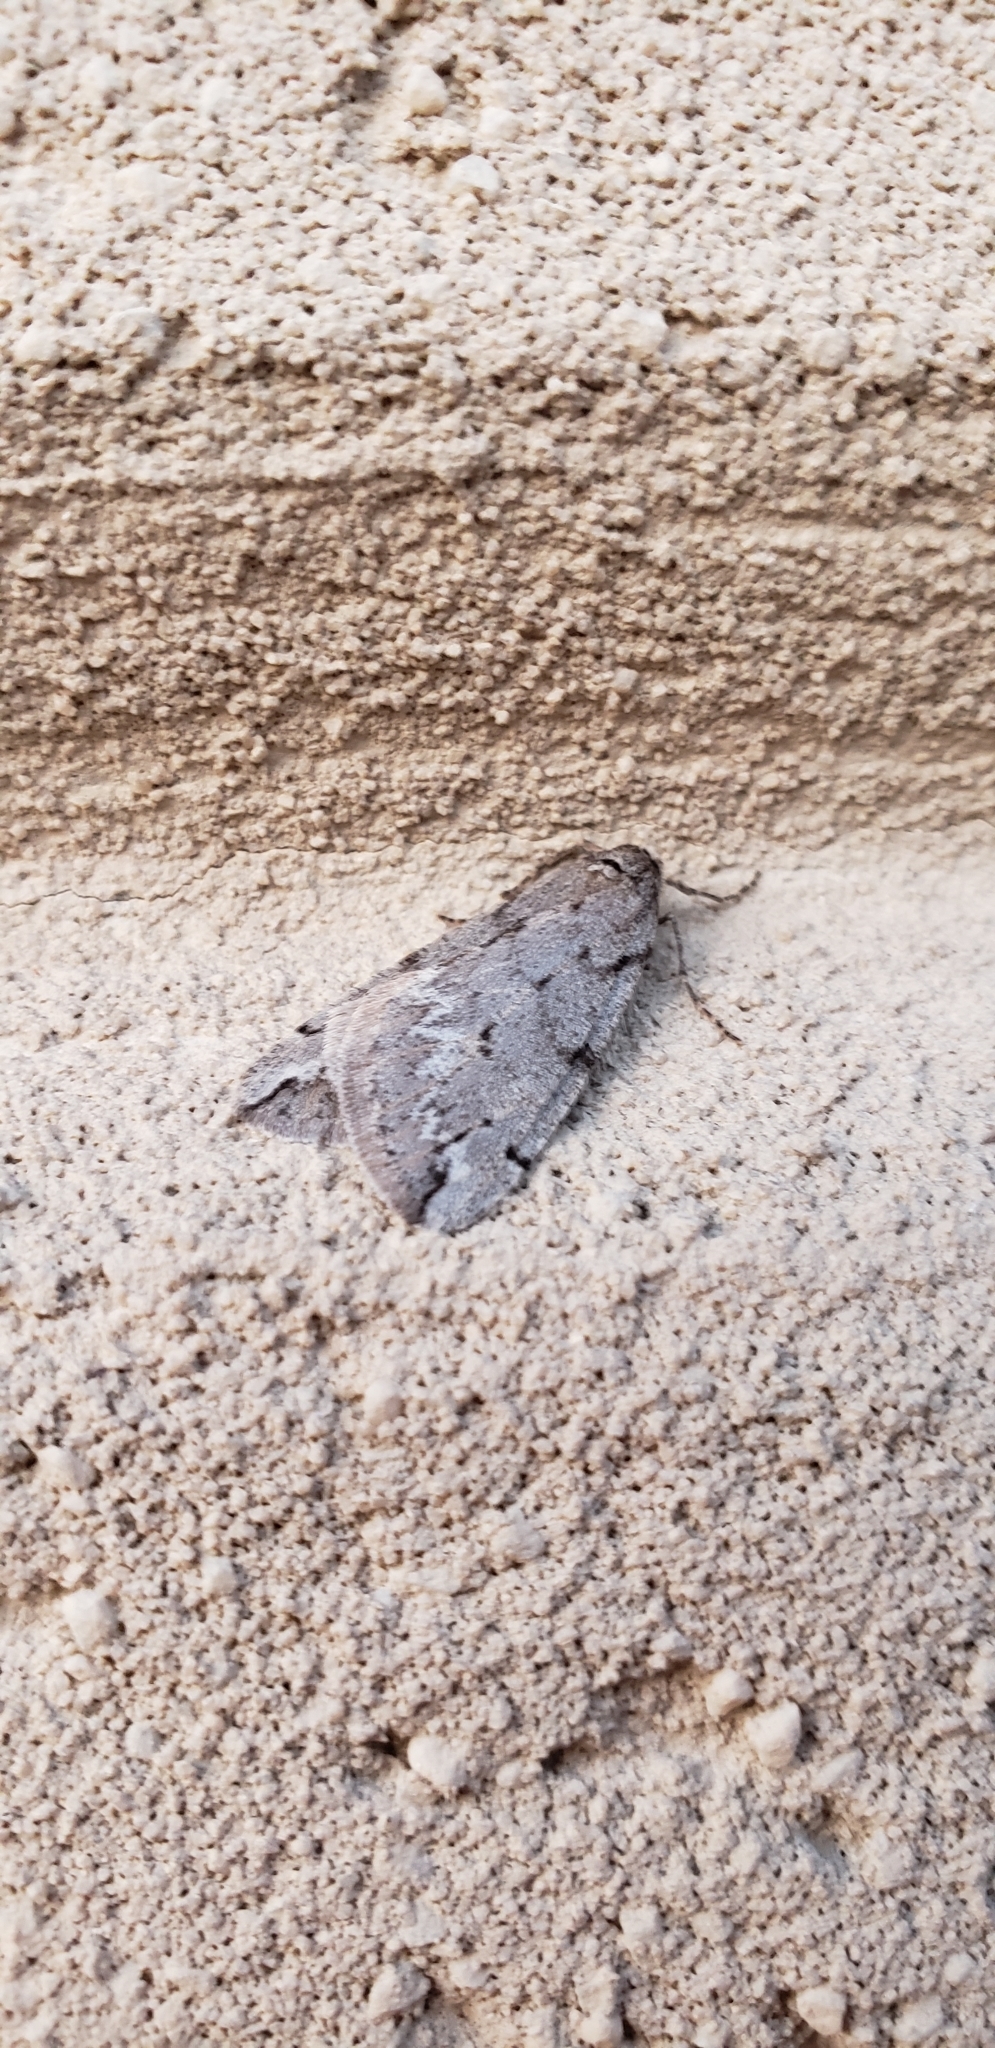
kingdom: Animalia
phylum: Arthropoda
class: Insecta
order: Lepidoptera
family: Geometridae
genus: Paleacrita
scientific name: Paleacrita vernata
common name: Spring cankerworm
